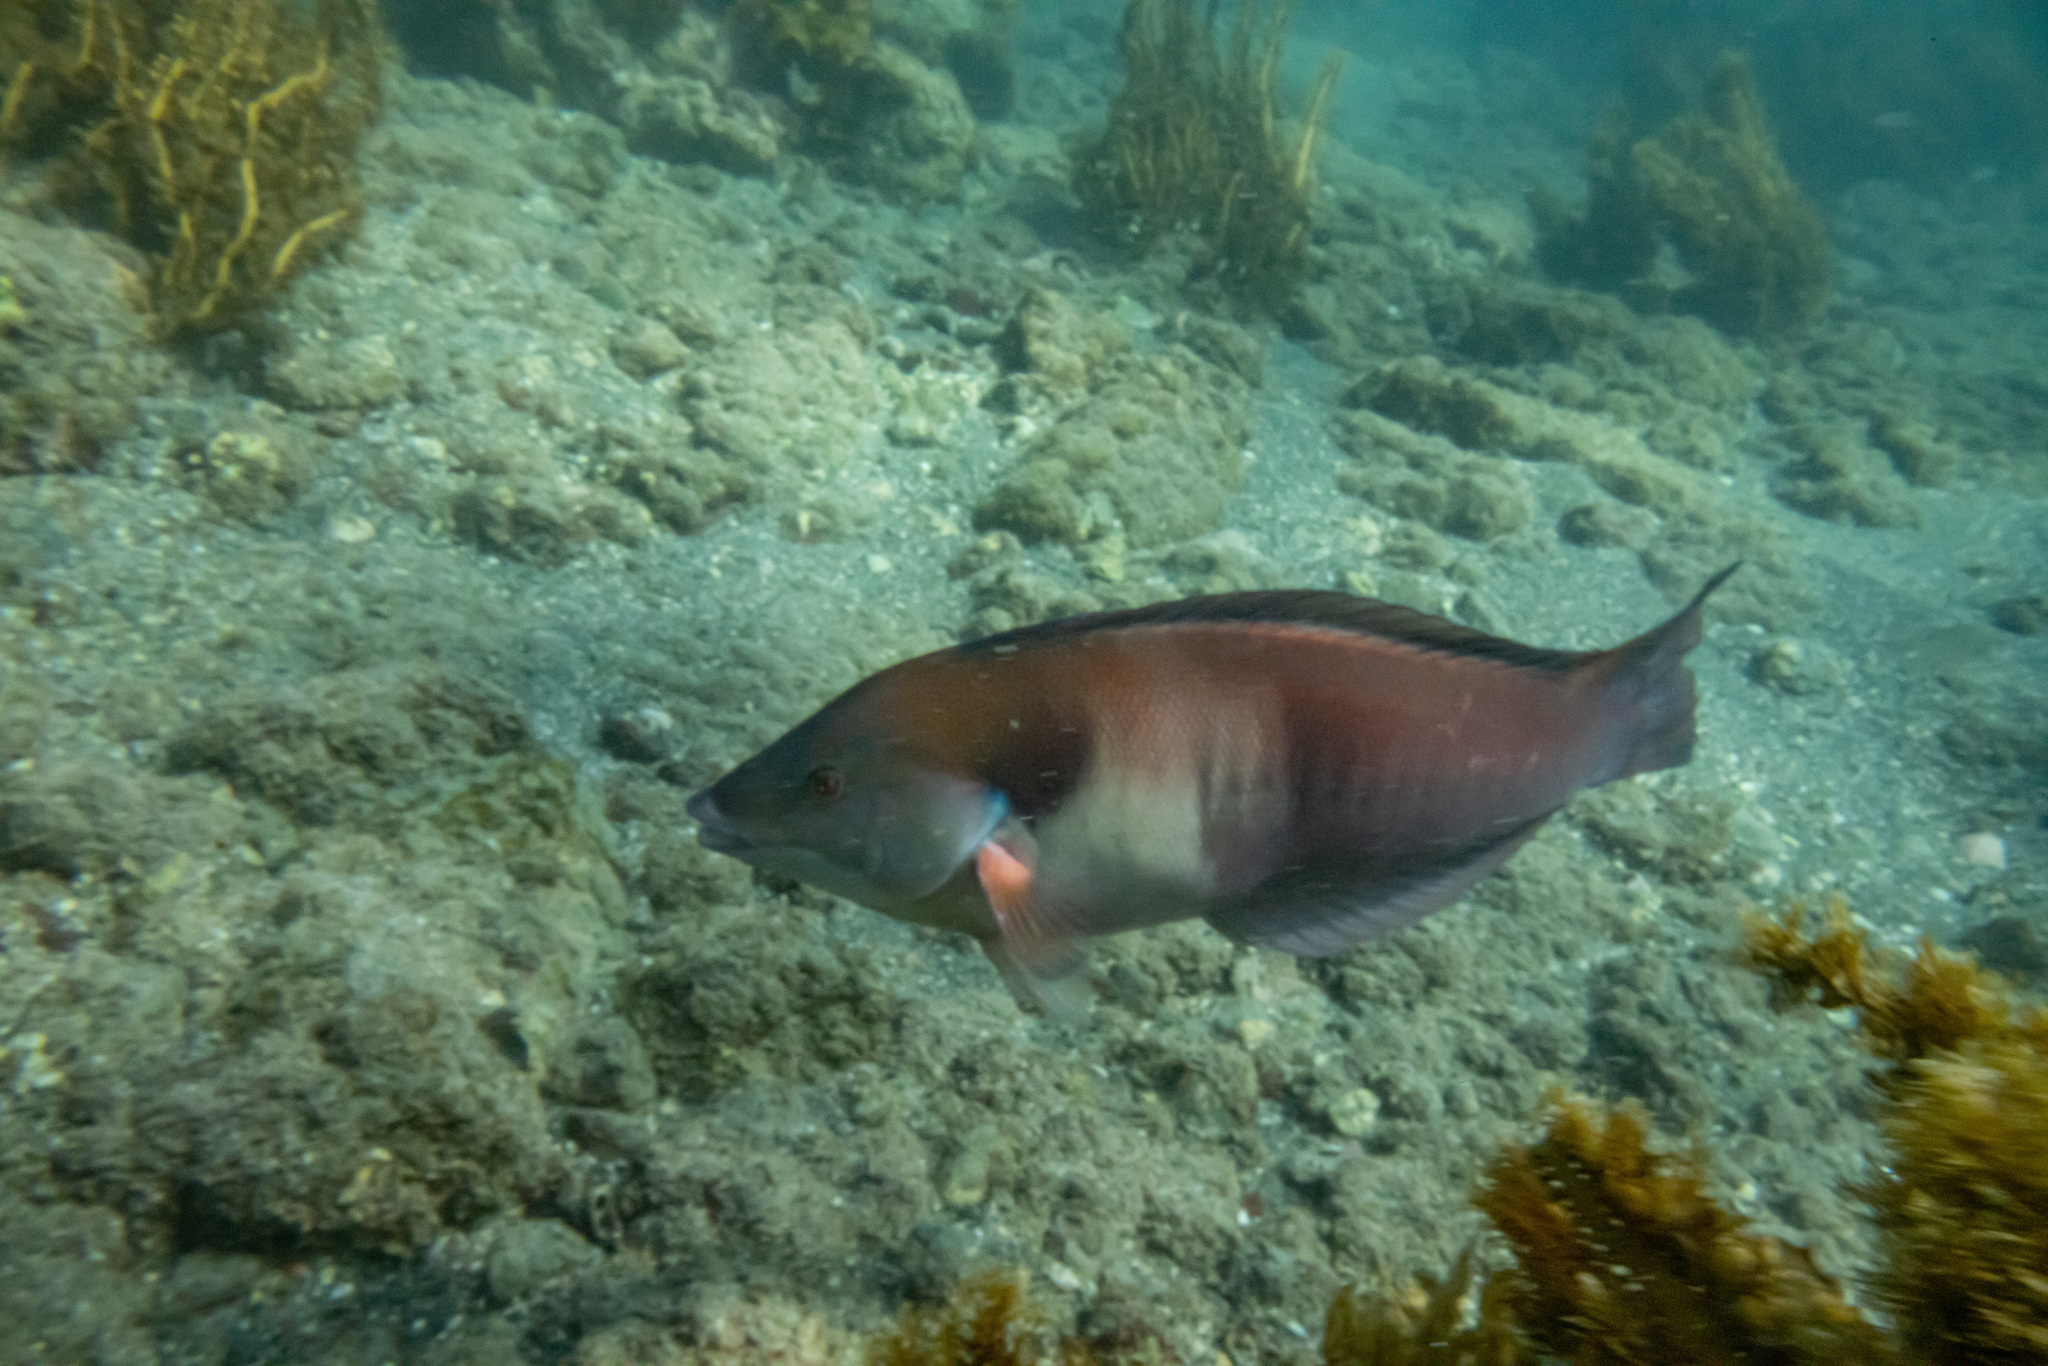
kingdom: Animalia
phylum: Chordata
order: Perciformes
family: Labridae
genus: Coris
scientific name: Coris sandeyeri
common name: Sandager's wrasse
